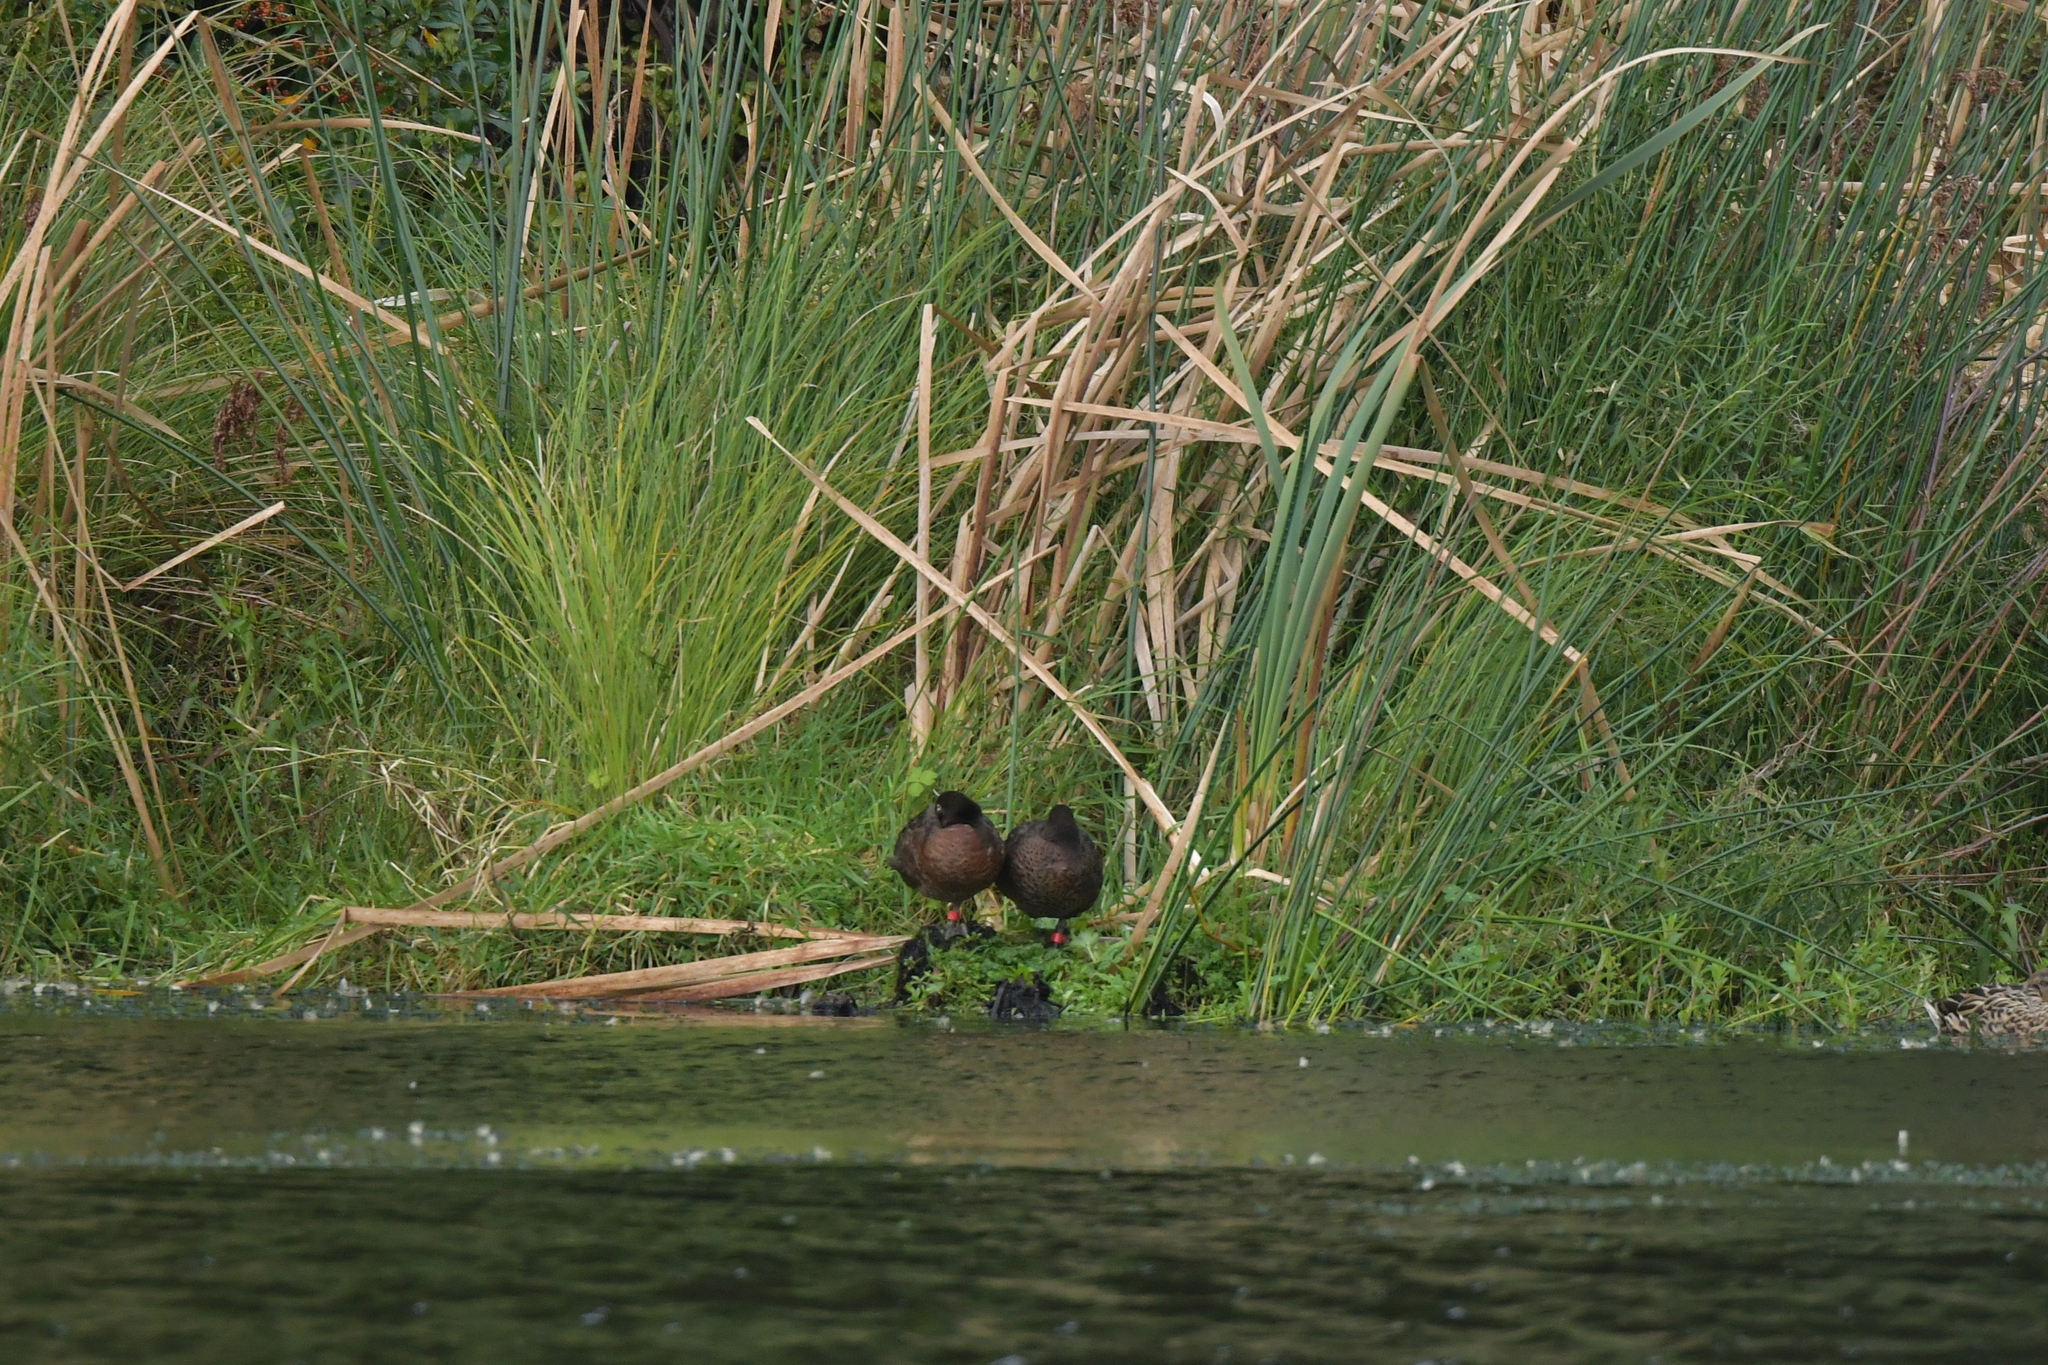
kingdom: Animalia
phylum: Chordata
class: Aves
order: Anseriformes
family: Anatidae
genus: Anas
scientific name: Anas chlorotis
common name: Brown teal
